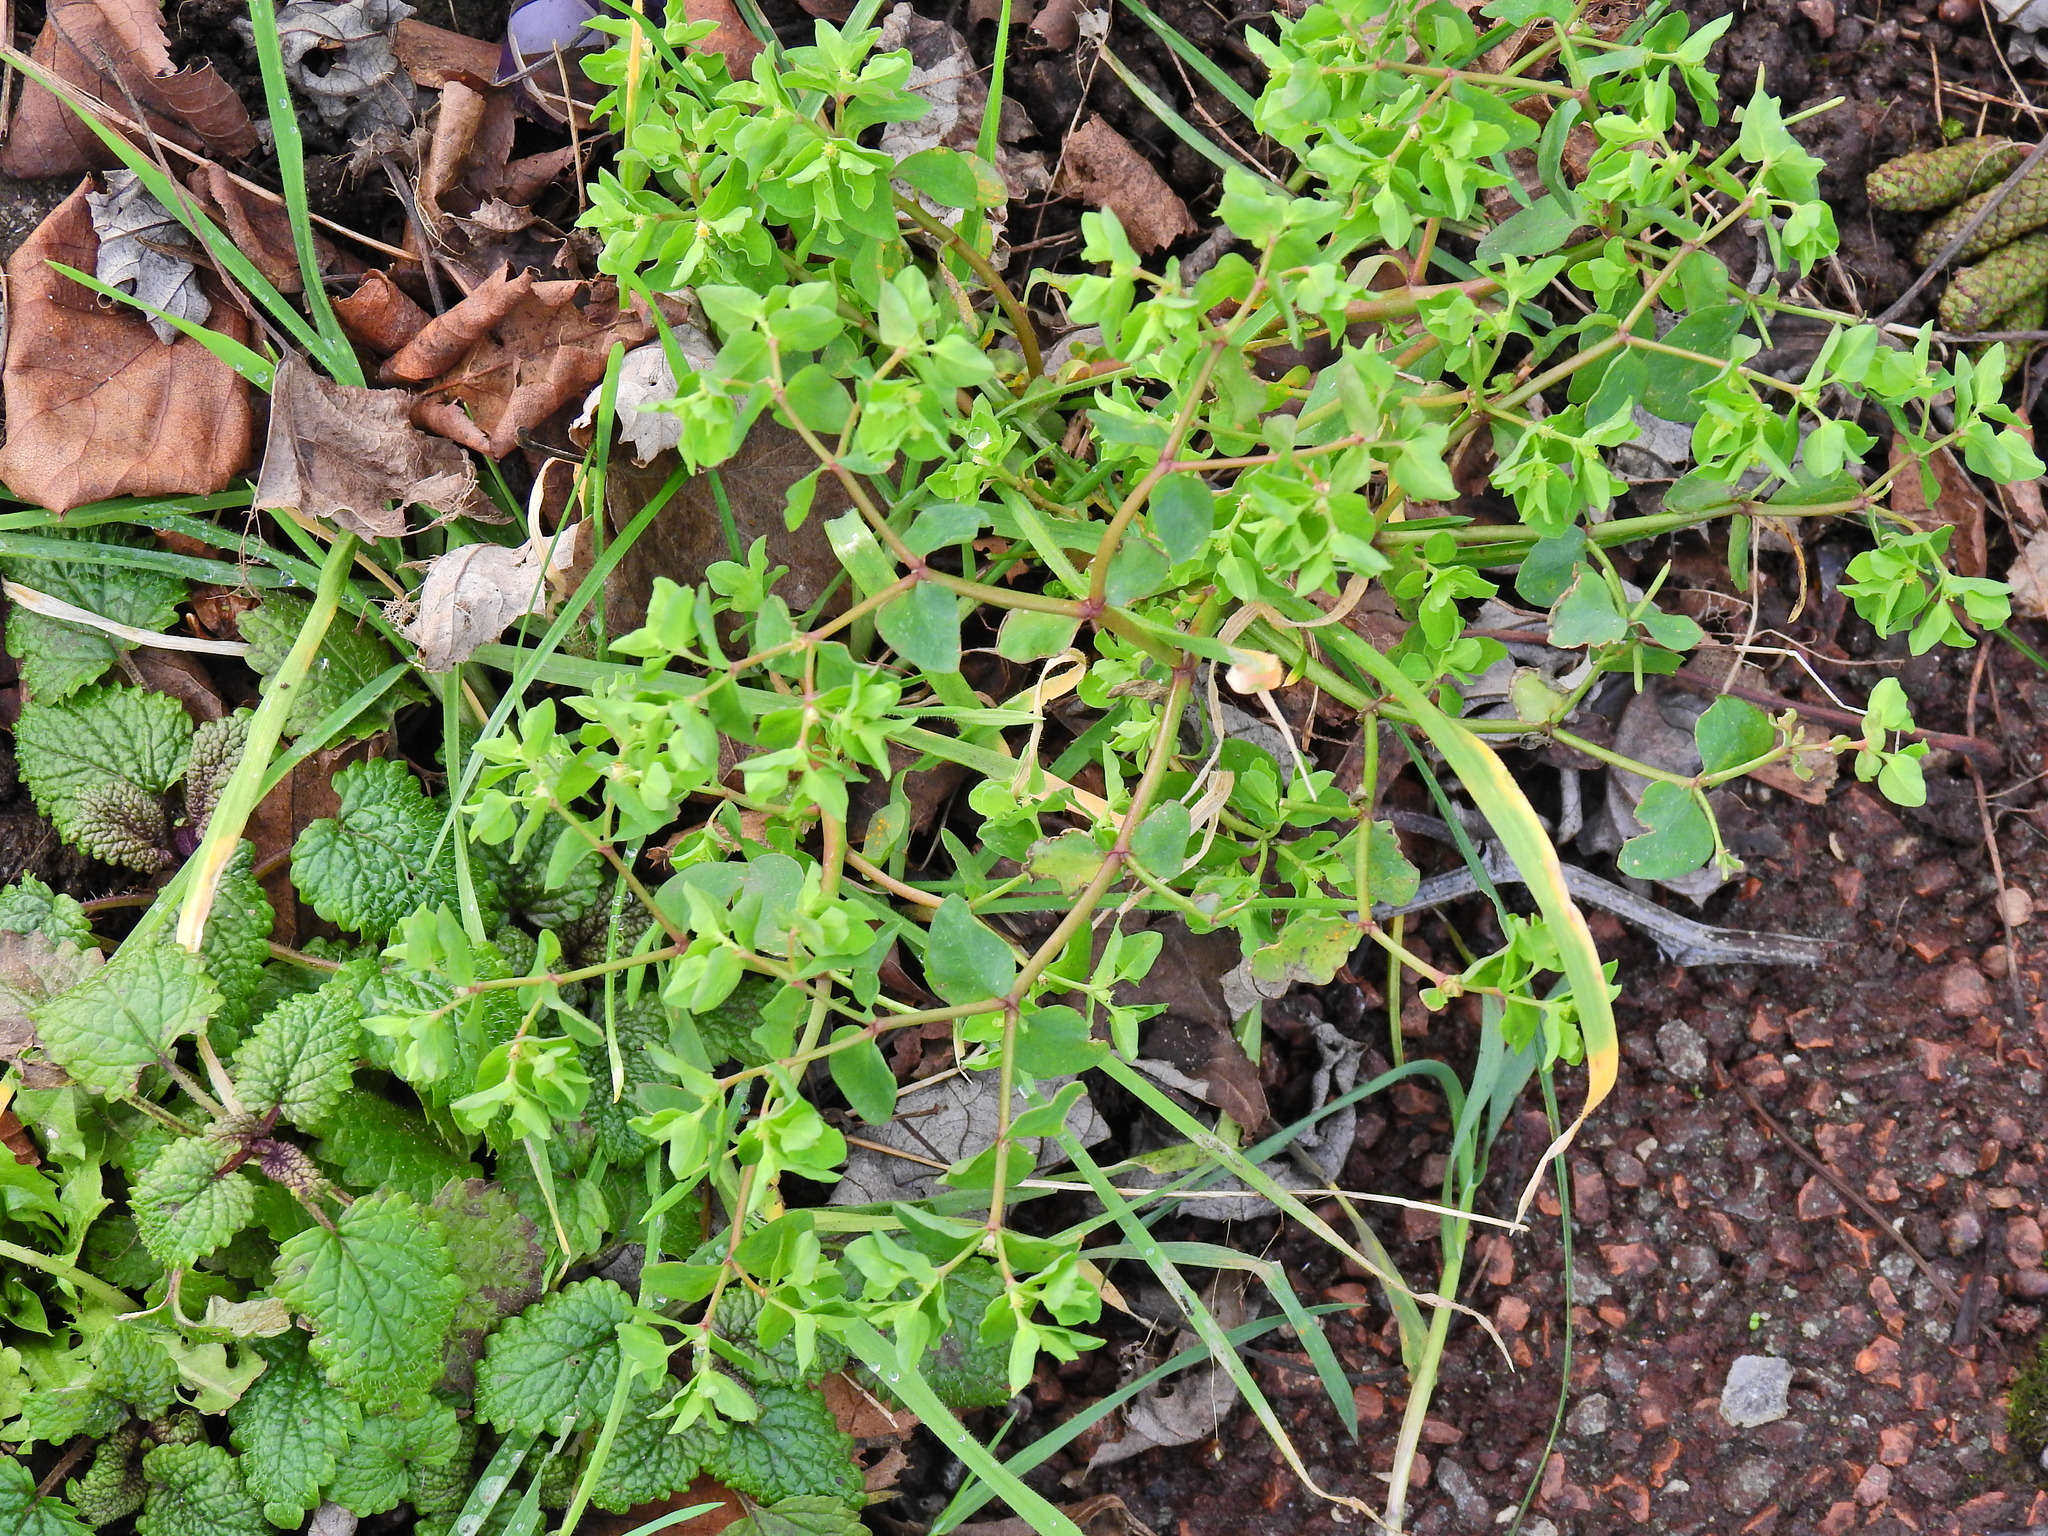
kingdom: Plantae
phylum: Tracheophyta
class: Magnoliopsida
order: Malpighiales
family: Euphorbiaceae
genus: Euphorbia
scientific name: Euphorbia peplus
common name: Petty spurge
